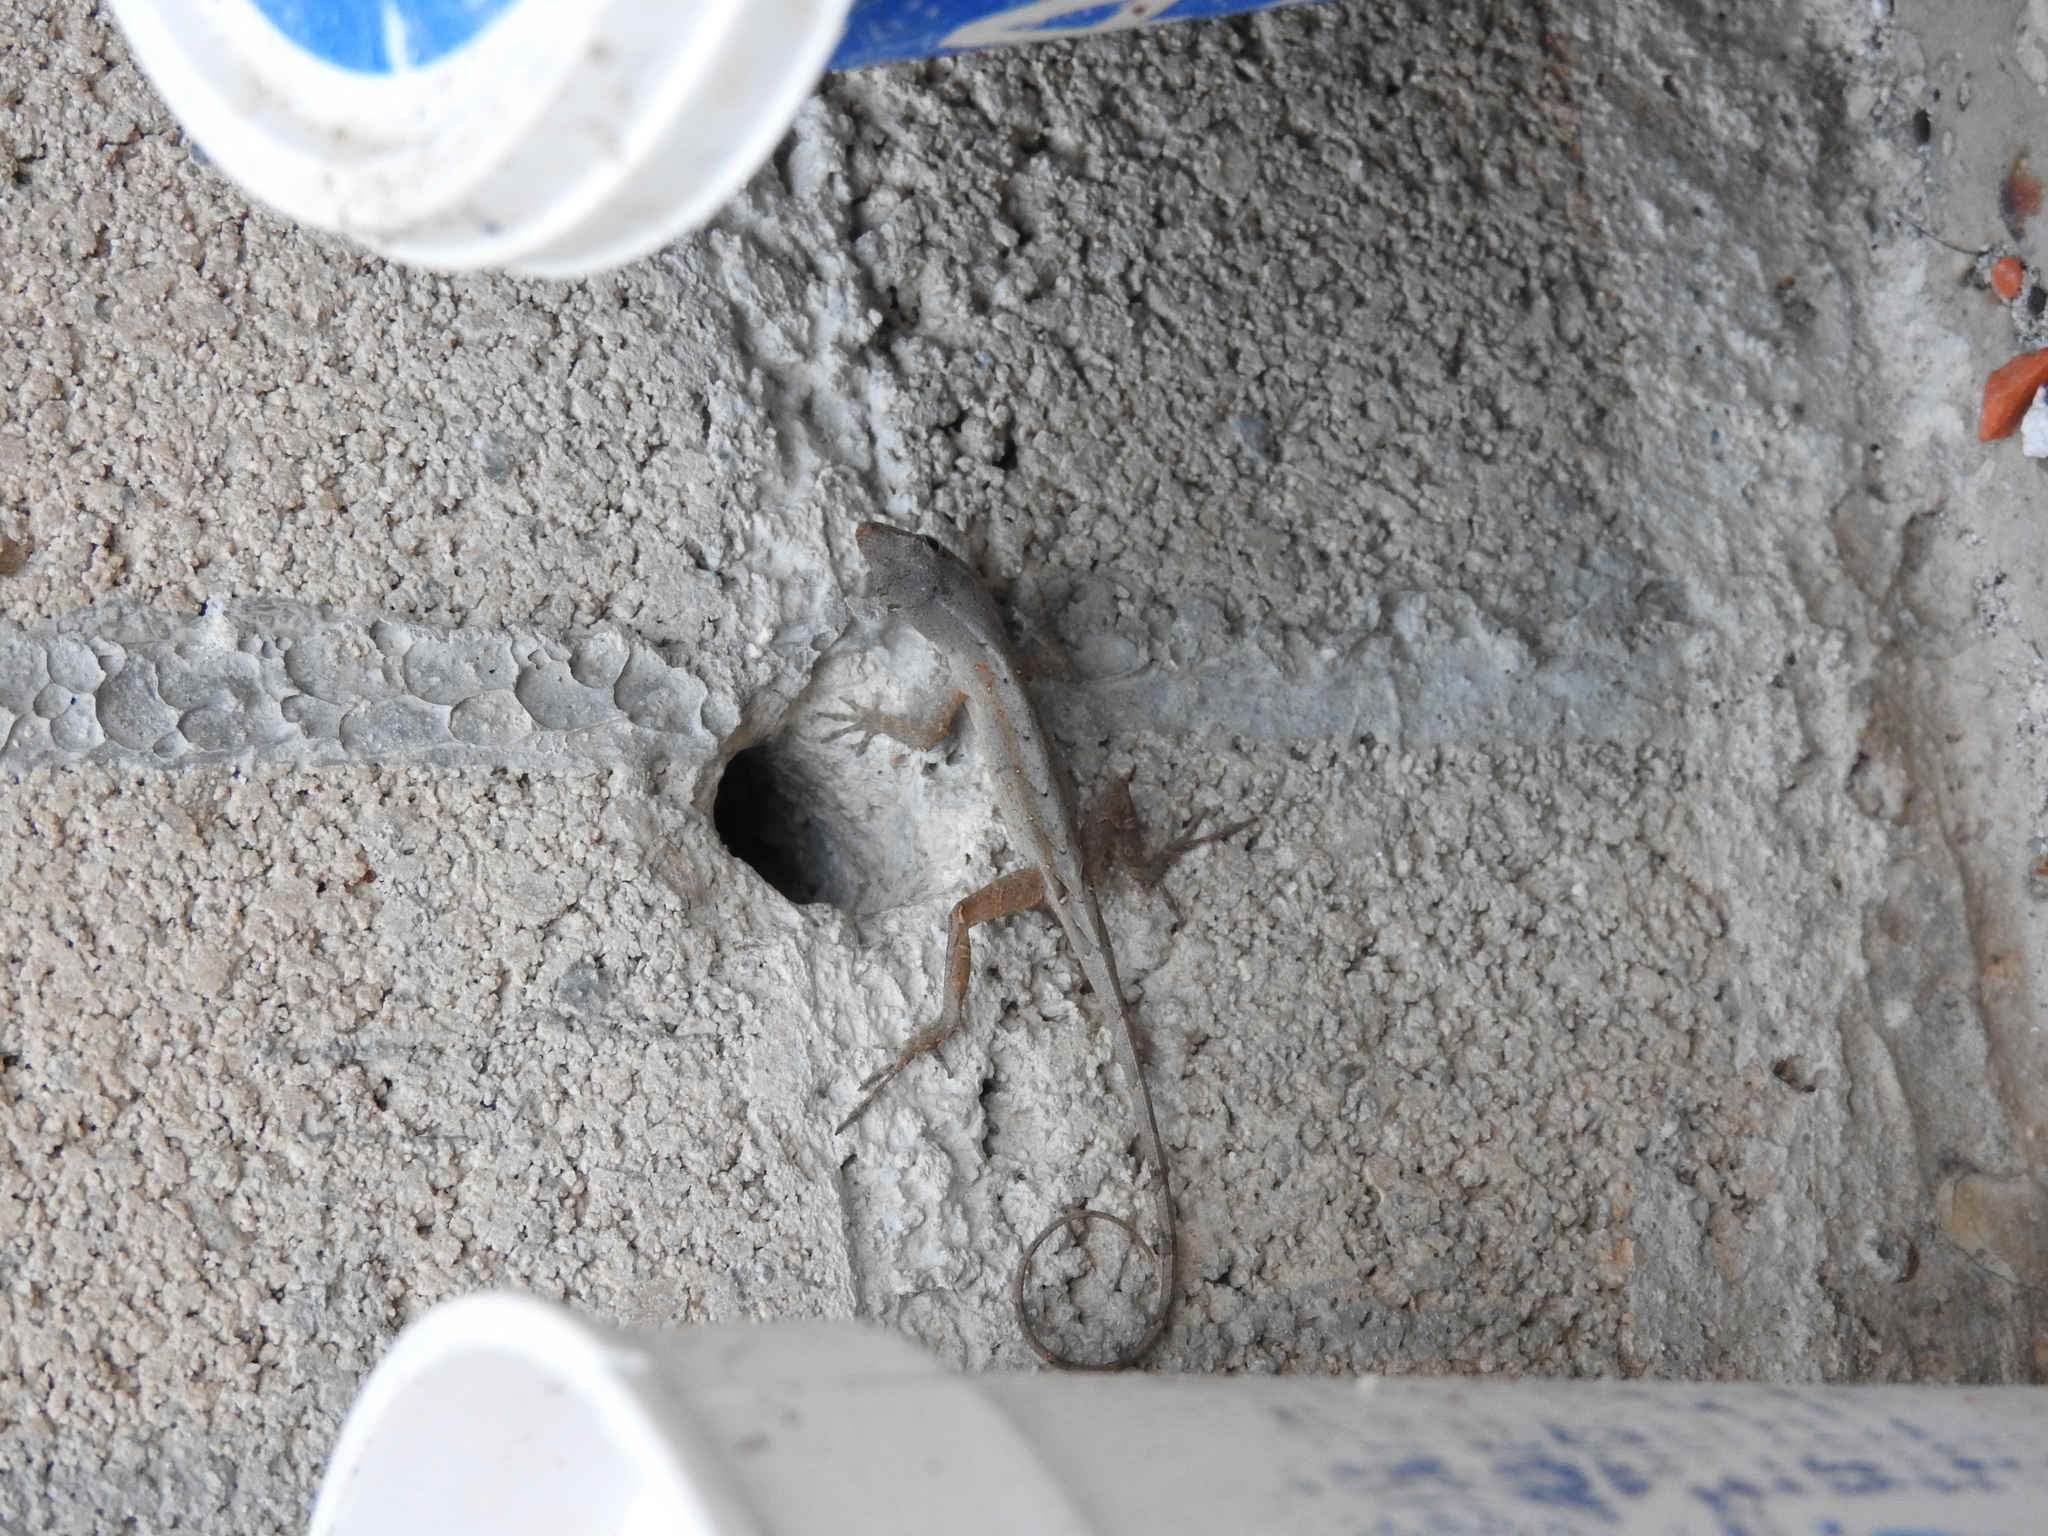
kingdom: Animalia
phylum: Chordata
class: Squamata
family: Dactyloidae
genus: Anolis
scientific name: Anolis sagrei
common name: Brown anole
